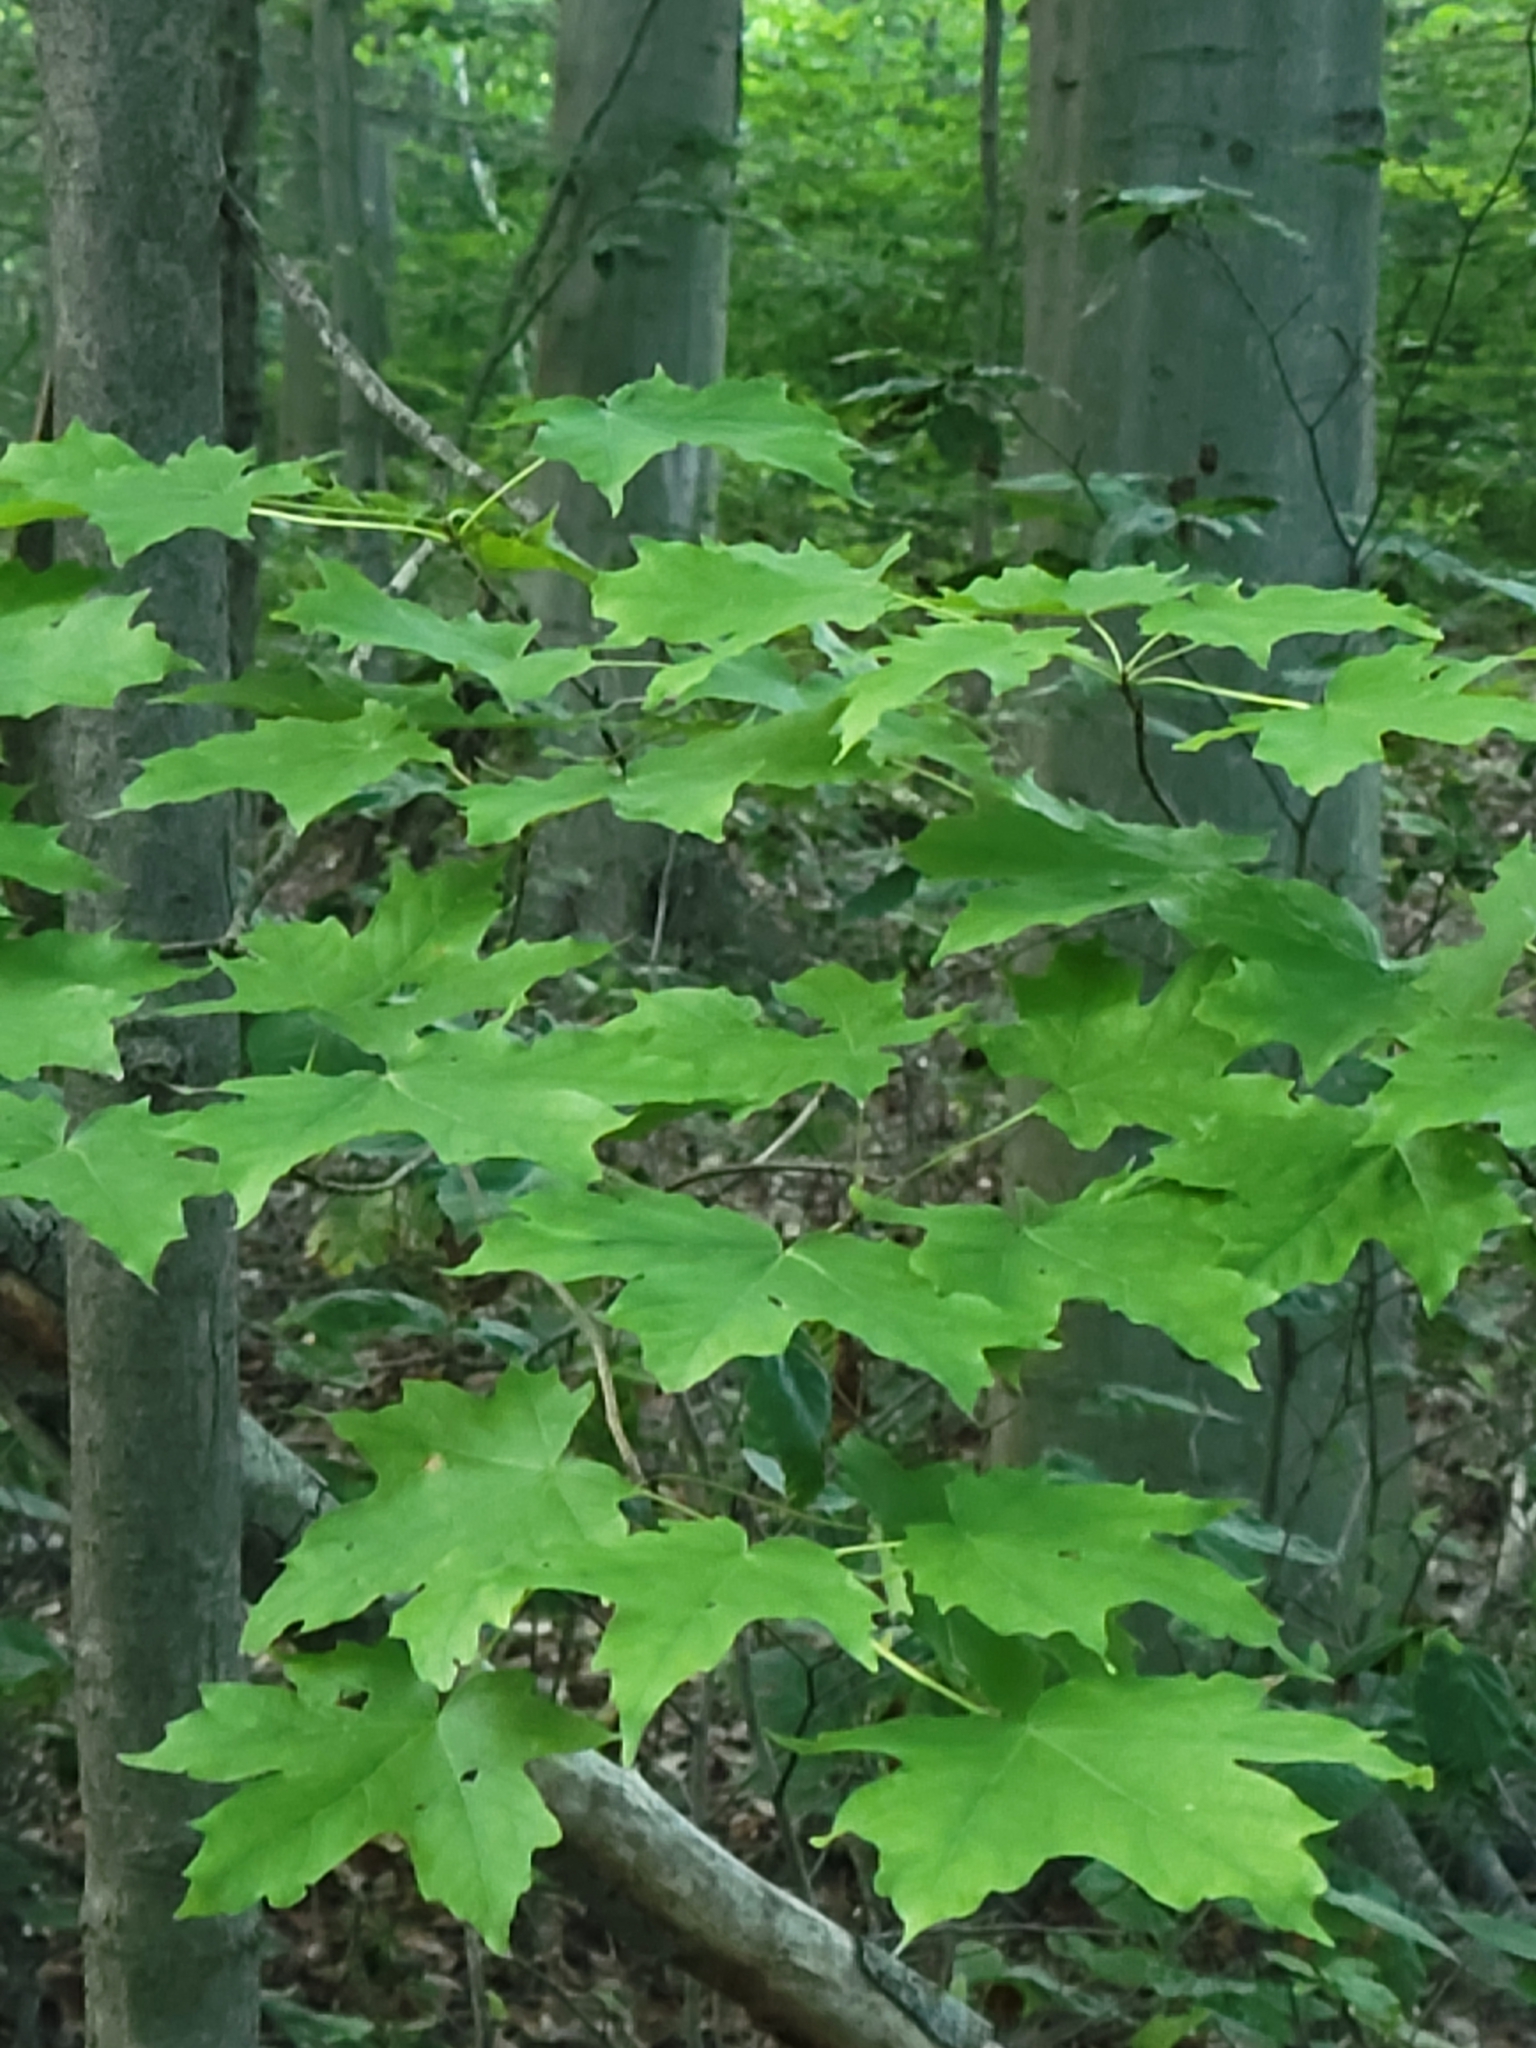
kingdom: Plantae
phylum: Tracheophyta
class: Magnoliopsida
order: Sapindales
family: Sapindaceae
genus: Acer
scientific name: Acer saccharum
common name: Sugar maple
